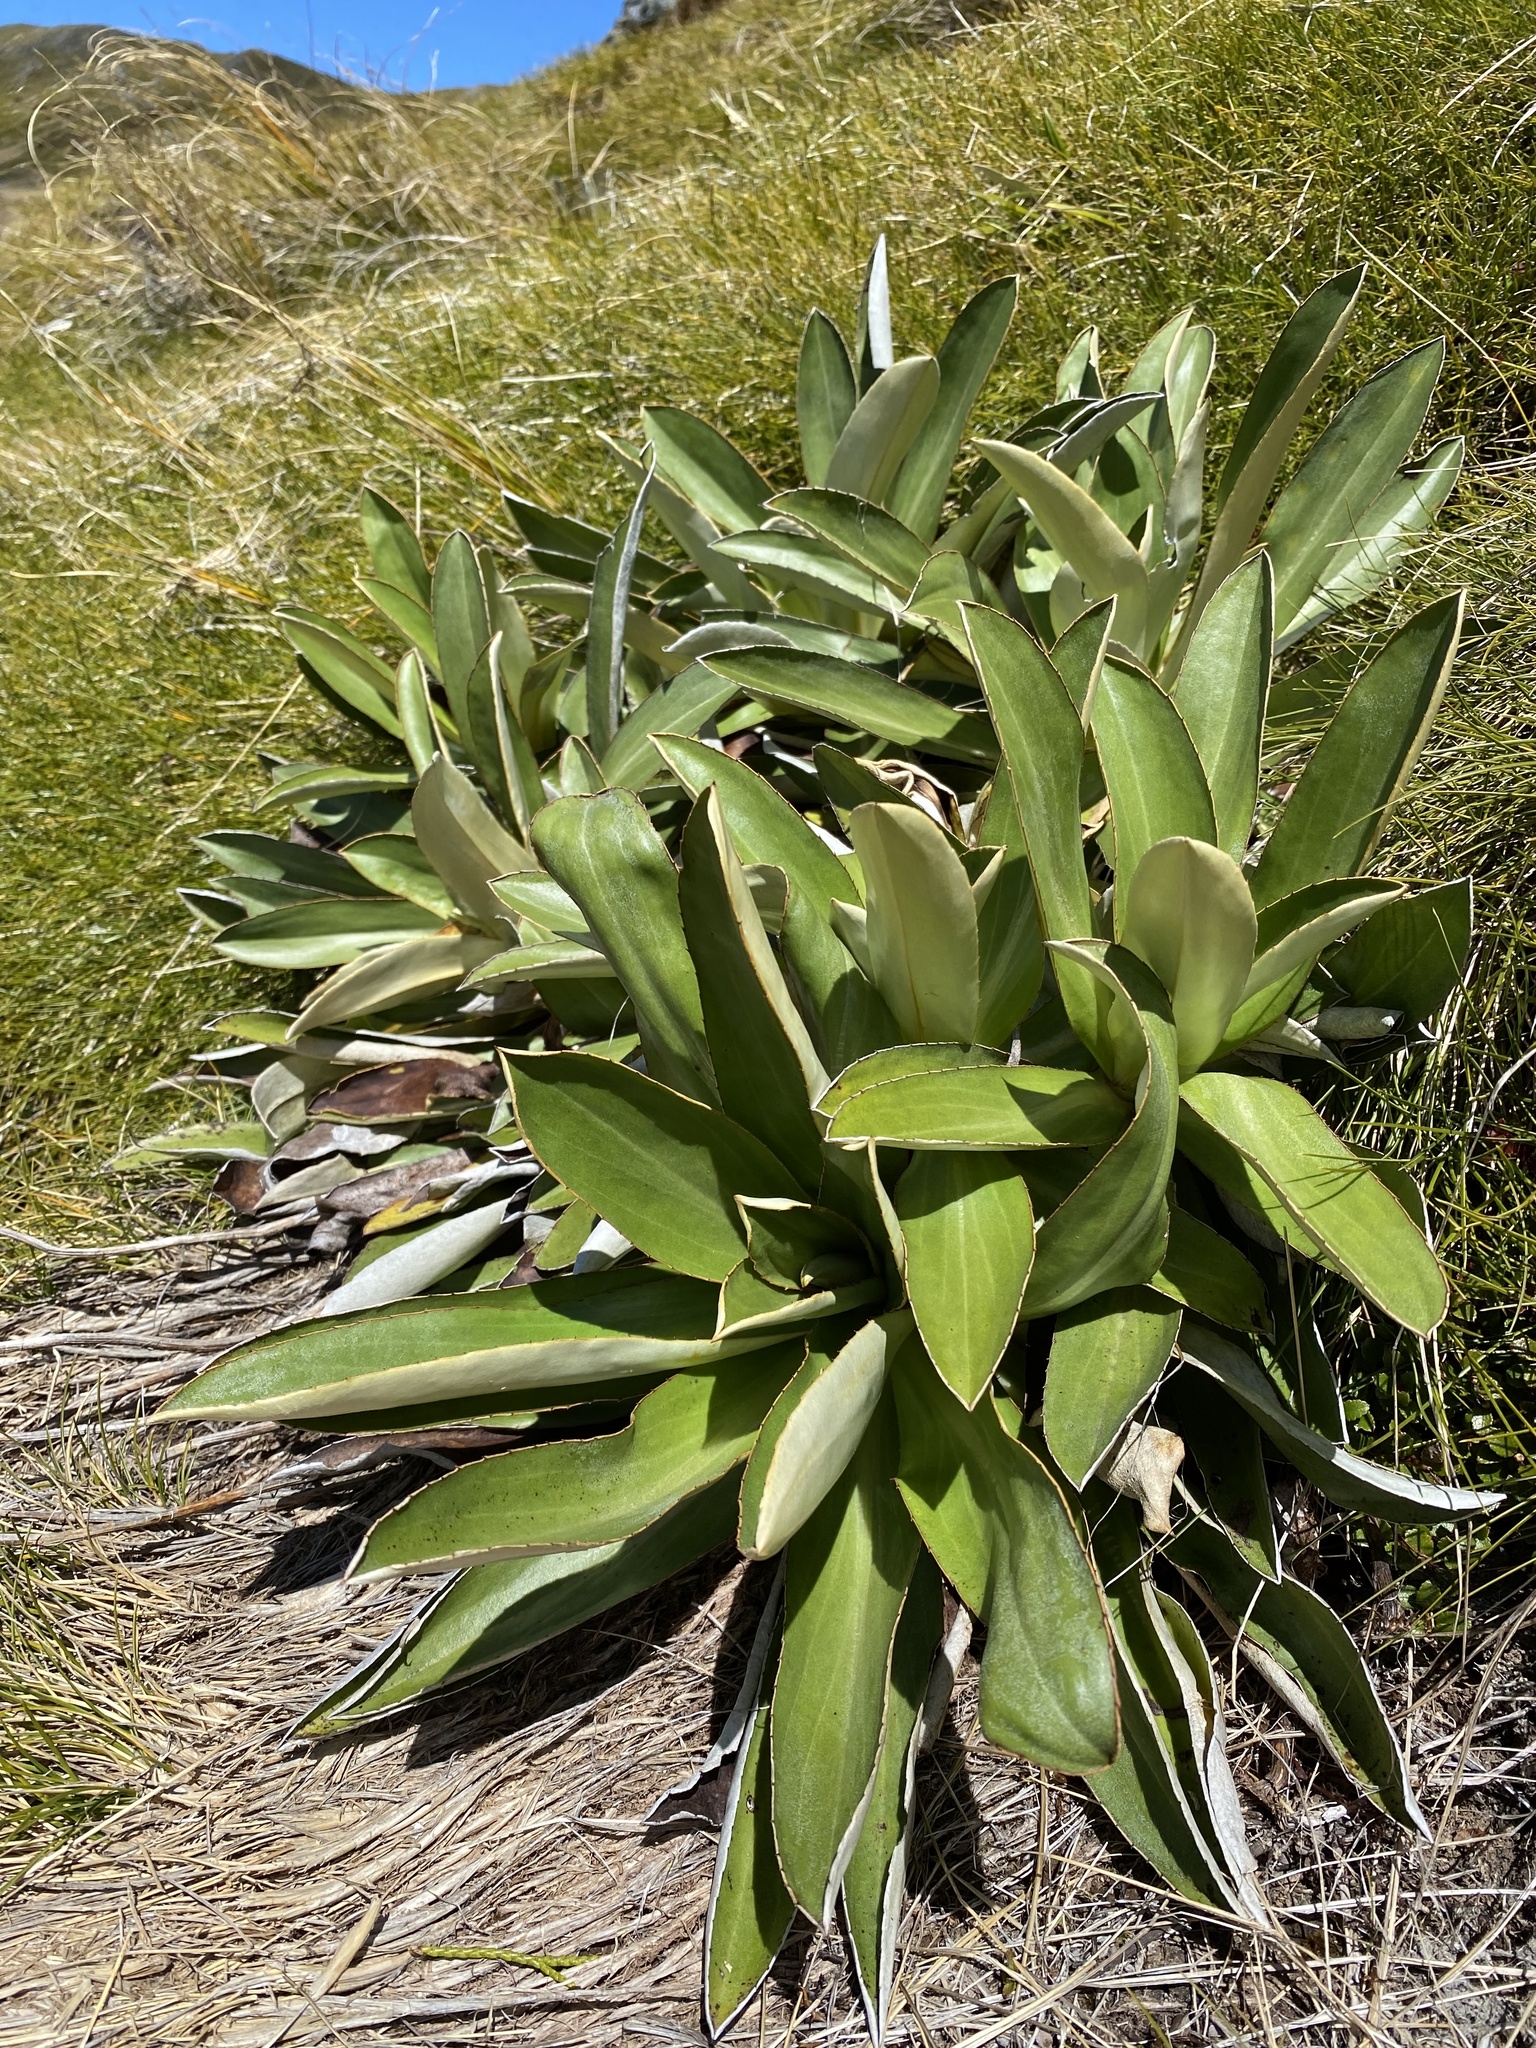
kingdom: Plantae
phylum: Tracheophyta
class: Magnoliopsida
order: Asterales
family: Asteraceae
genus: Celmisia
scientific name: Celmisia dallii
